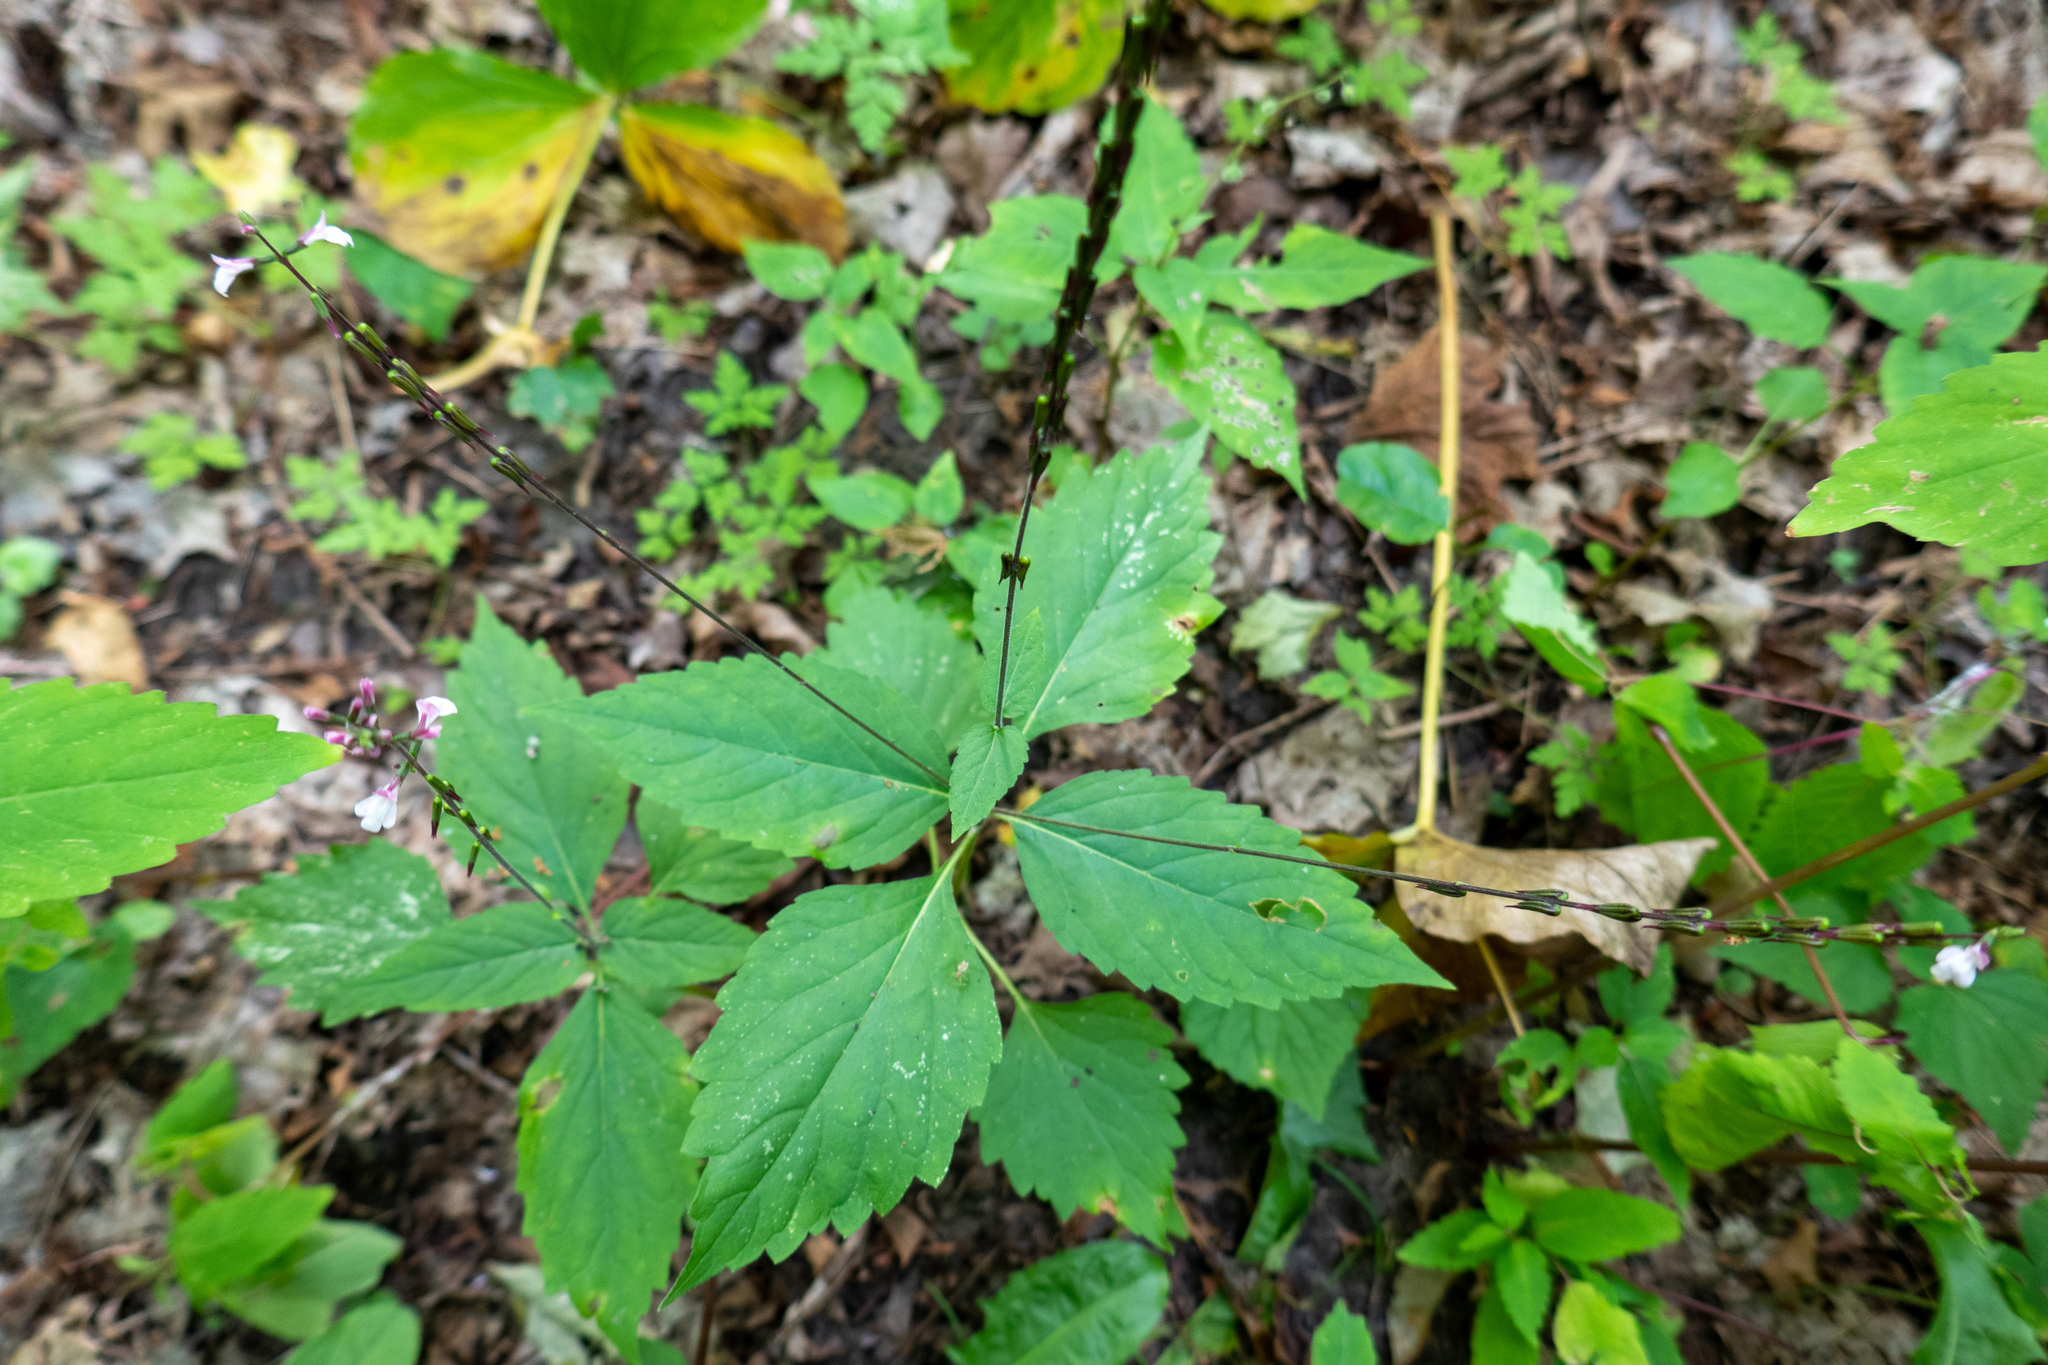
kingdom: Plantae
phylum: Tracheophyta
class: Magnoliopsida
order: Lamiales
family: Phrymaceae
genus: Phryma
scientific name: Phryma leptostachya
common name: American lopseed
